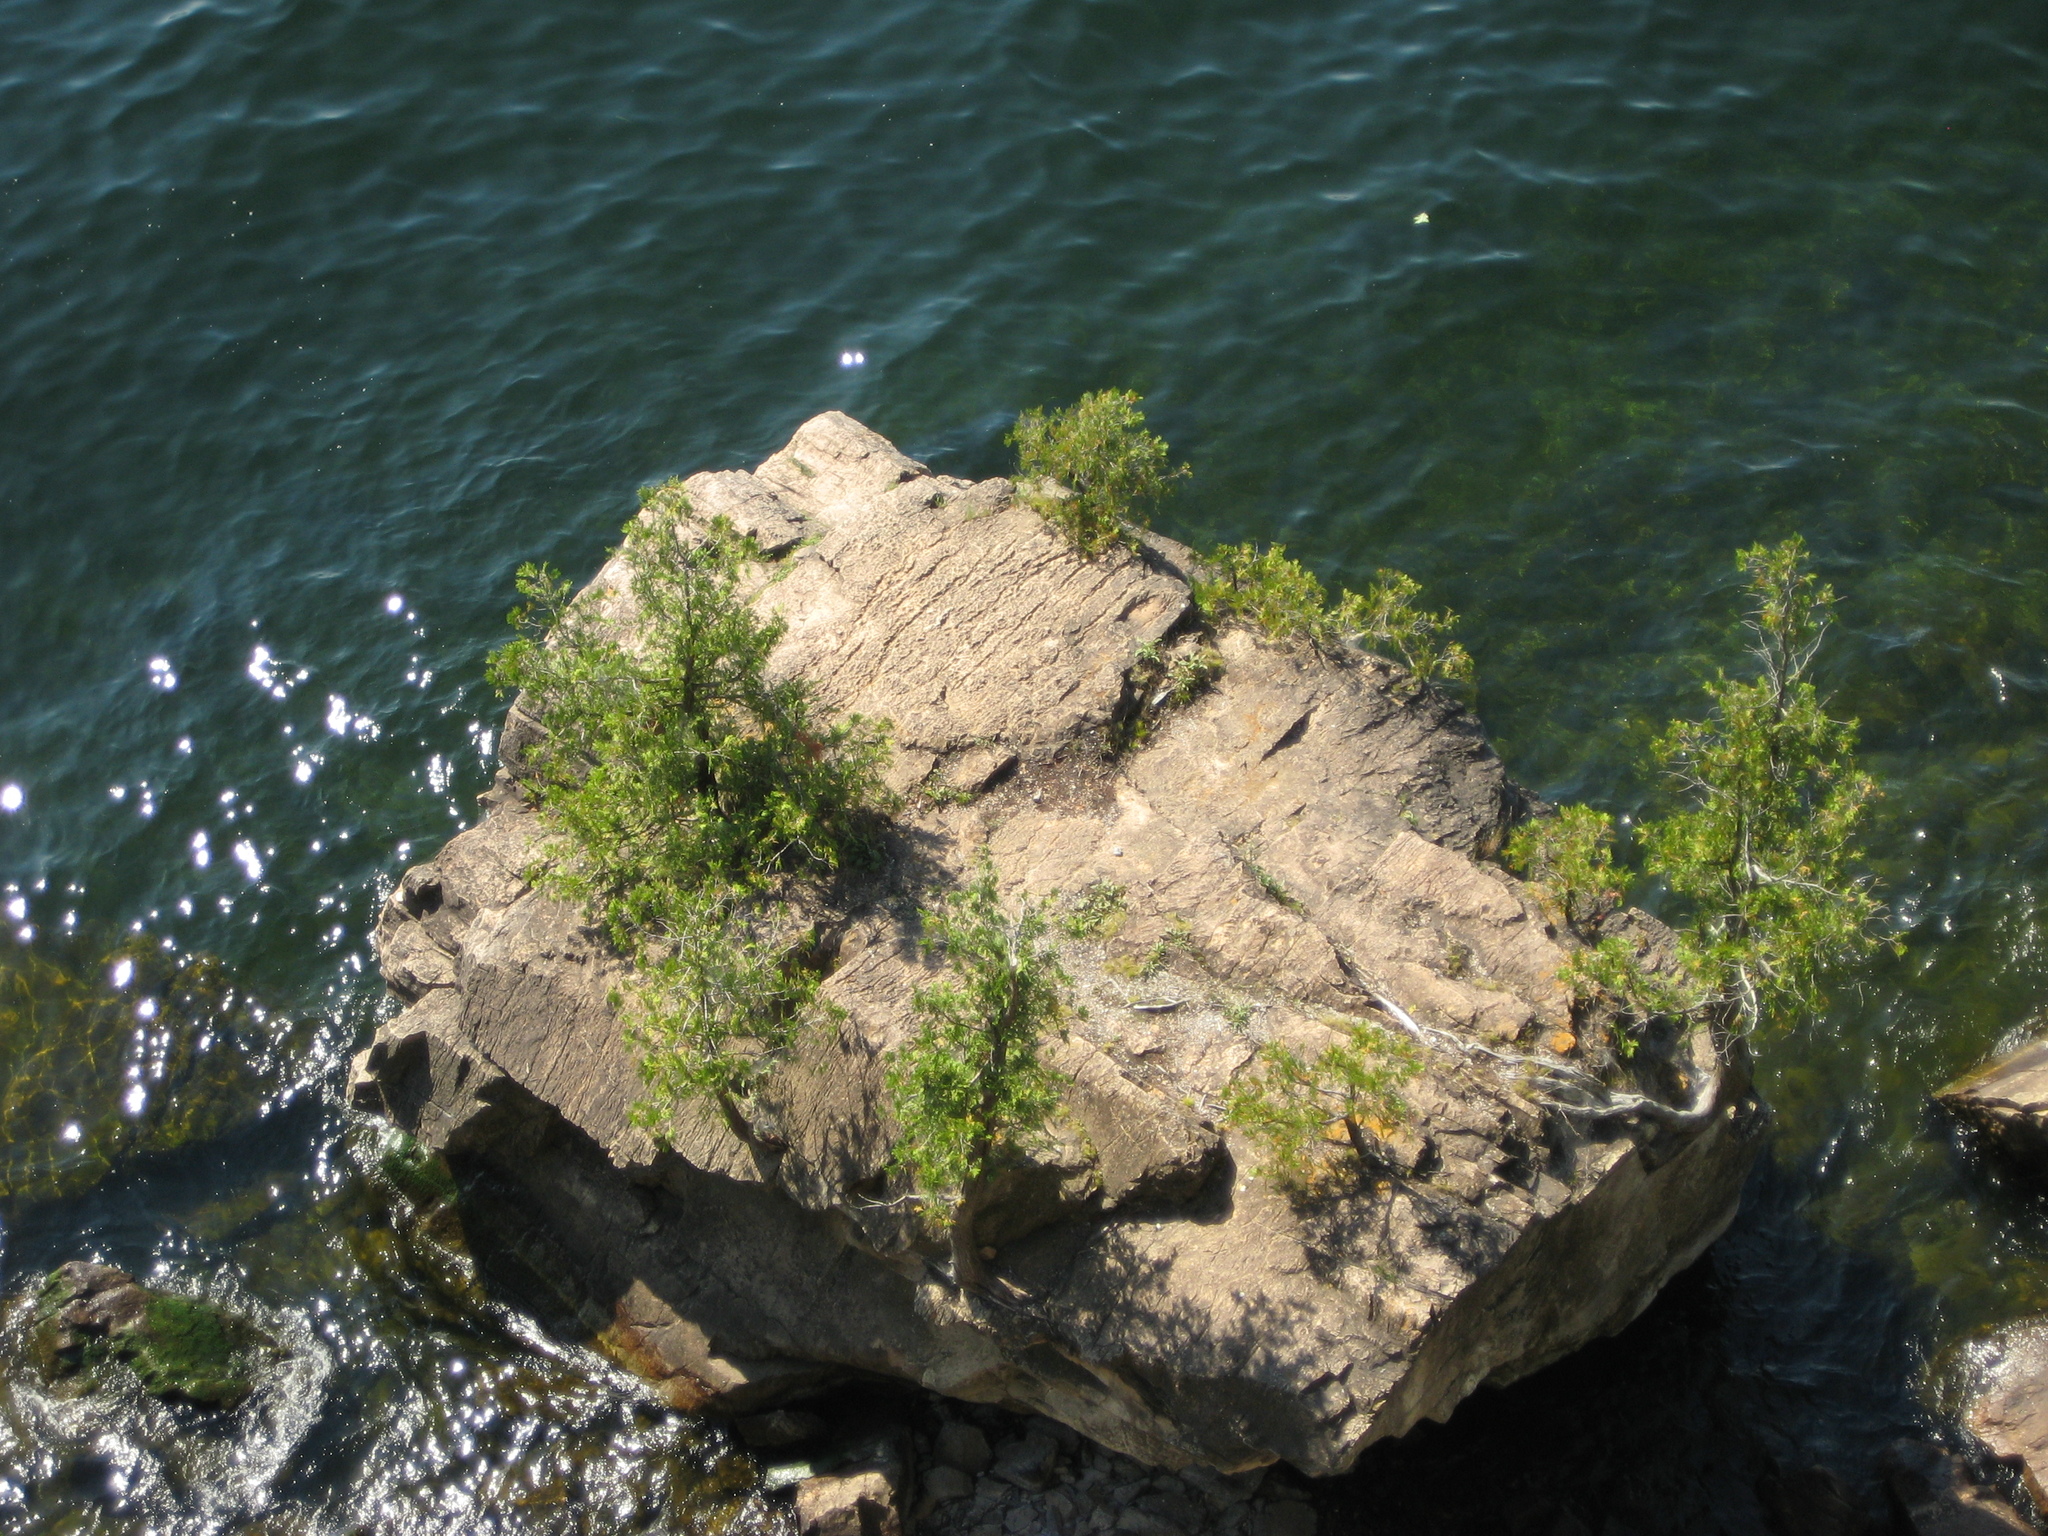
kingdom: Plantae
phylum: Tracheophyta
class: Pinopsida
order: Pinales
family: Cupressaceae
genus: Thuja
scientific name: Thuja occidentalis
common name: Northern white-cedar
